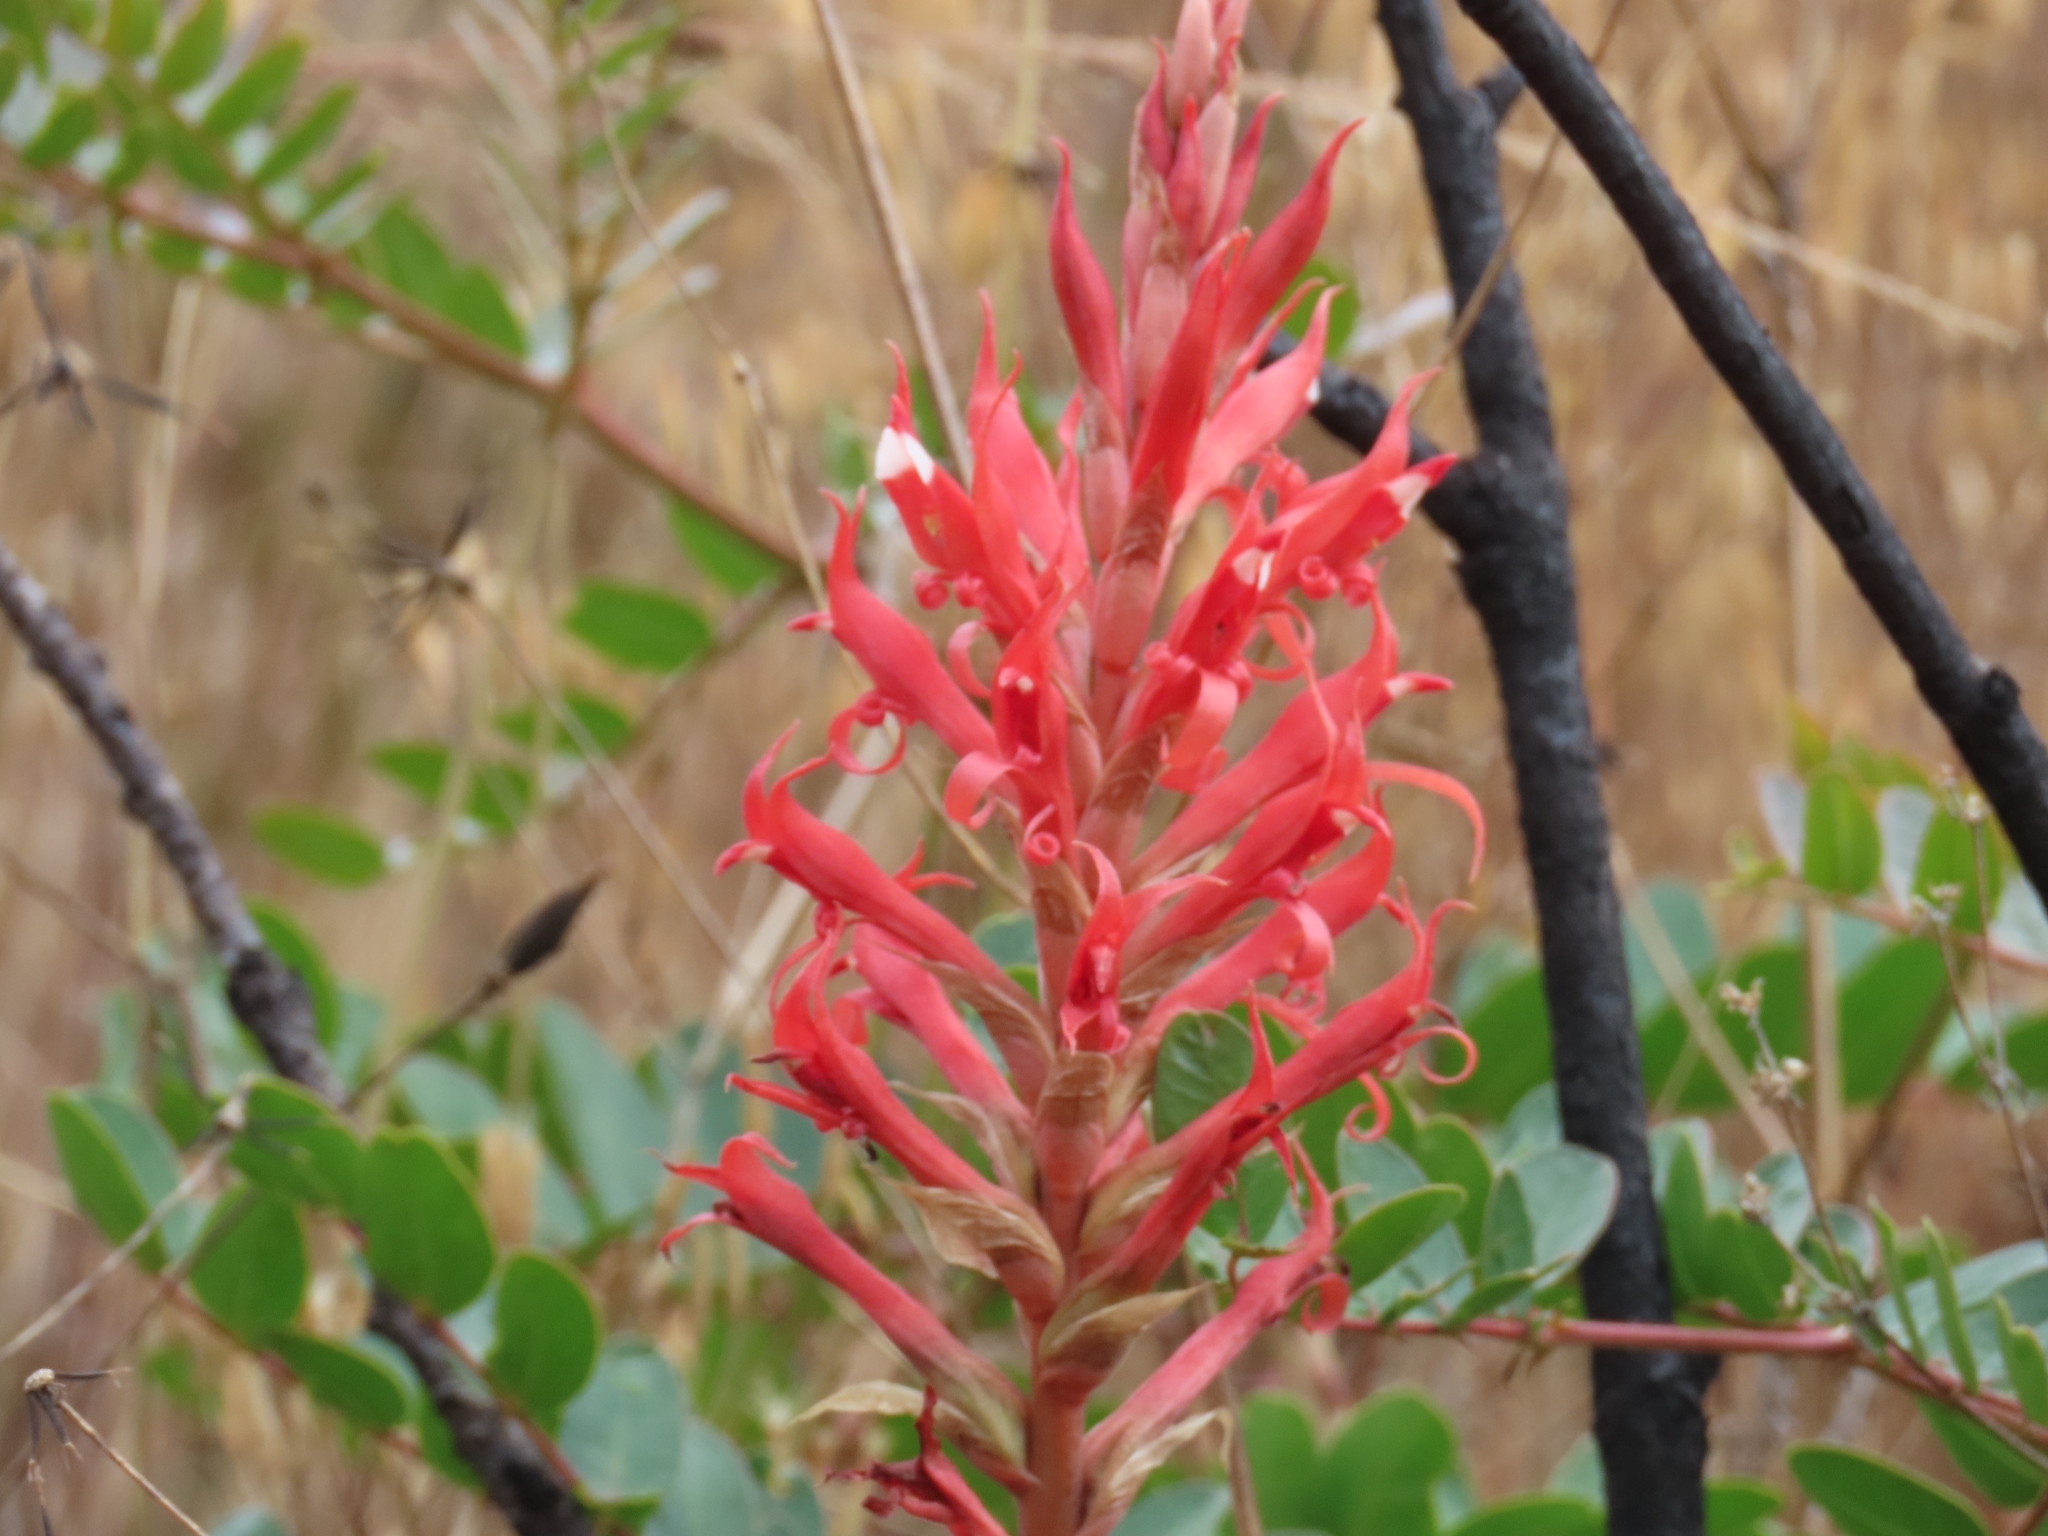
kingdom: Plantae
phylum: Tracheophyta
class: Liliopsida
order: Asparagales
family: Orchidaceae
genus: Porphyrostachys
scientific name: Porphyrostachys pilifera
